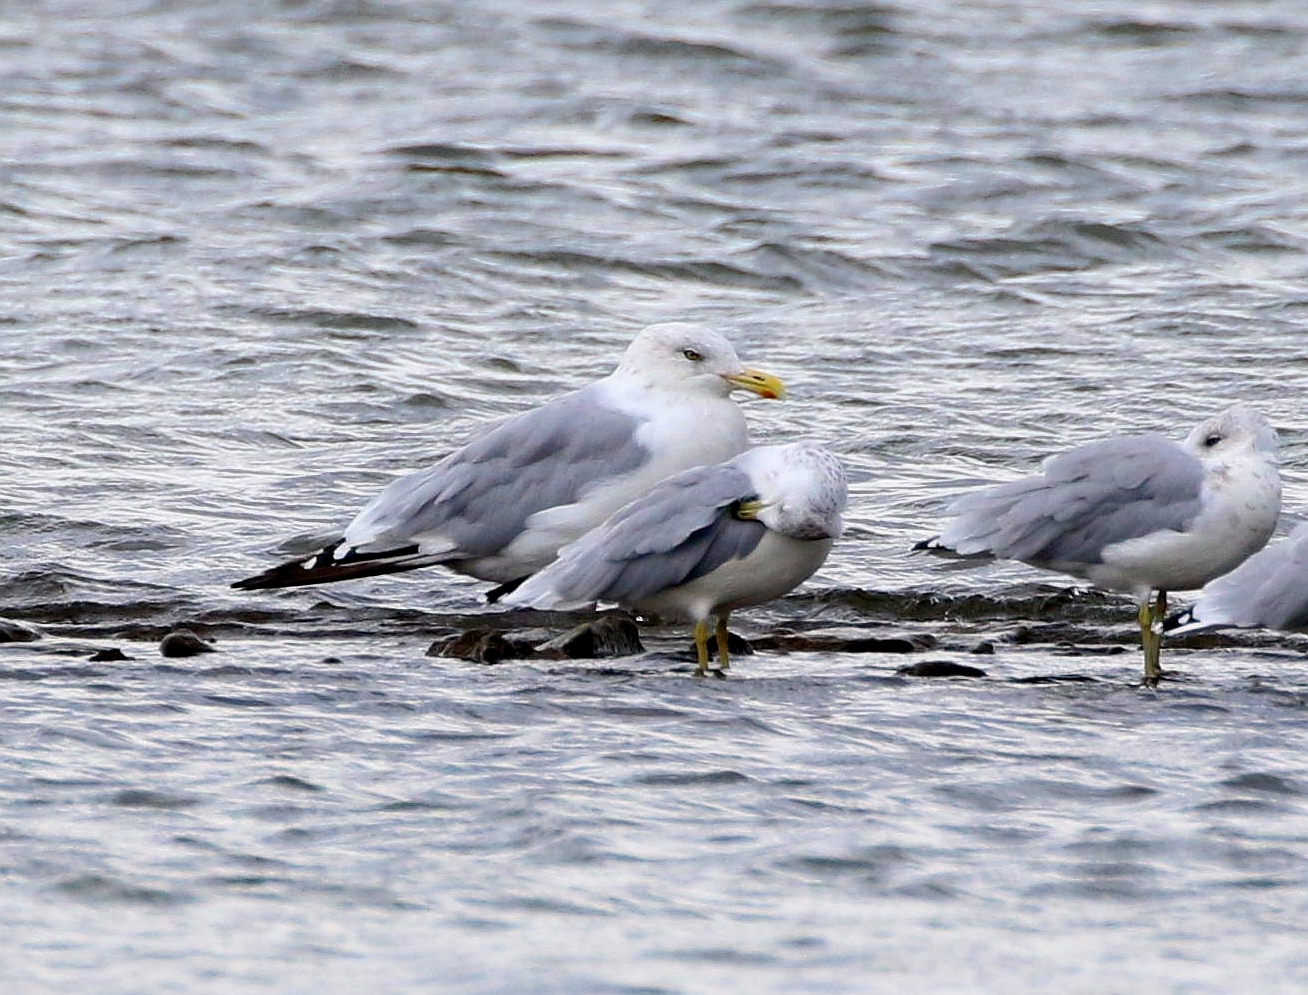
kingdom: Animalia
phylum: Chordata
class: Aves
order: Charadriiformes
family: Laridae
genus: Larus
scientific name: Larus argentatus
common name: Herring gull
